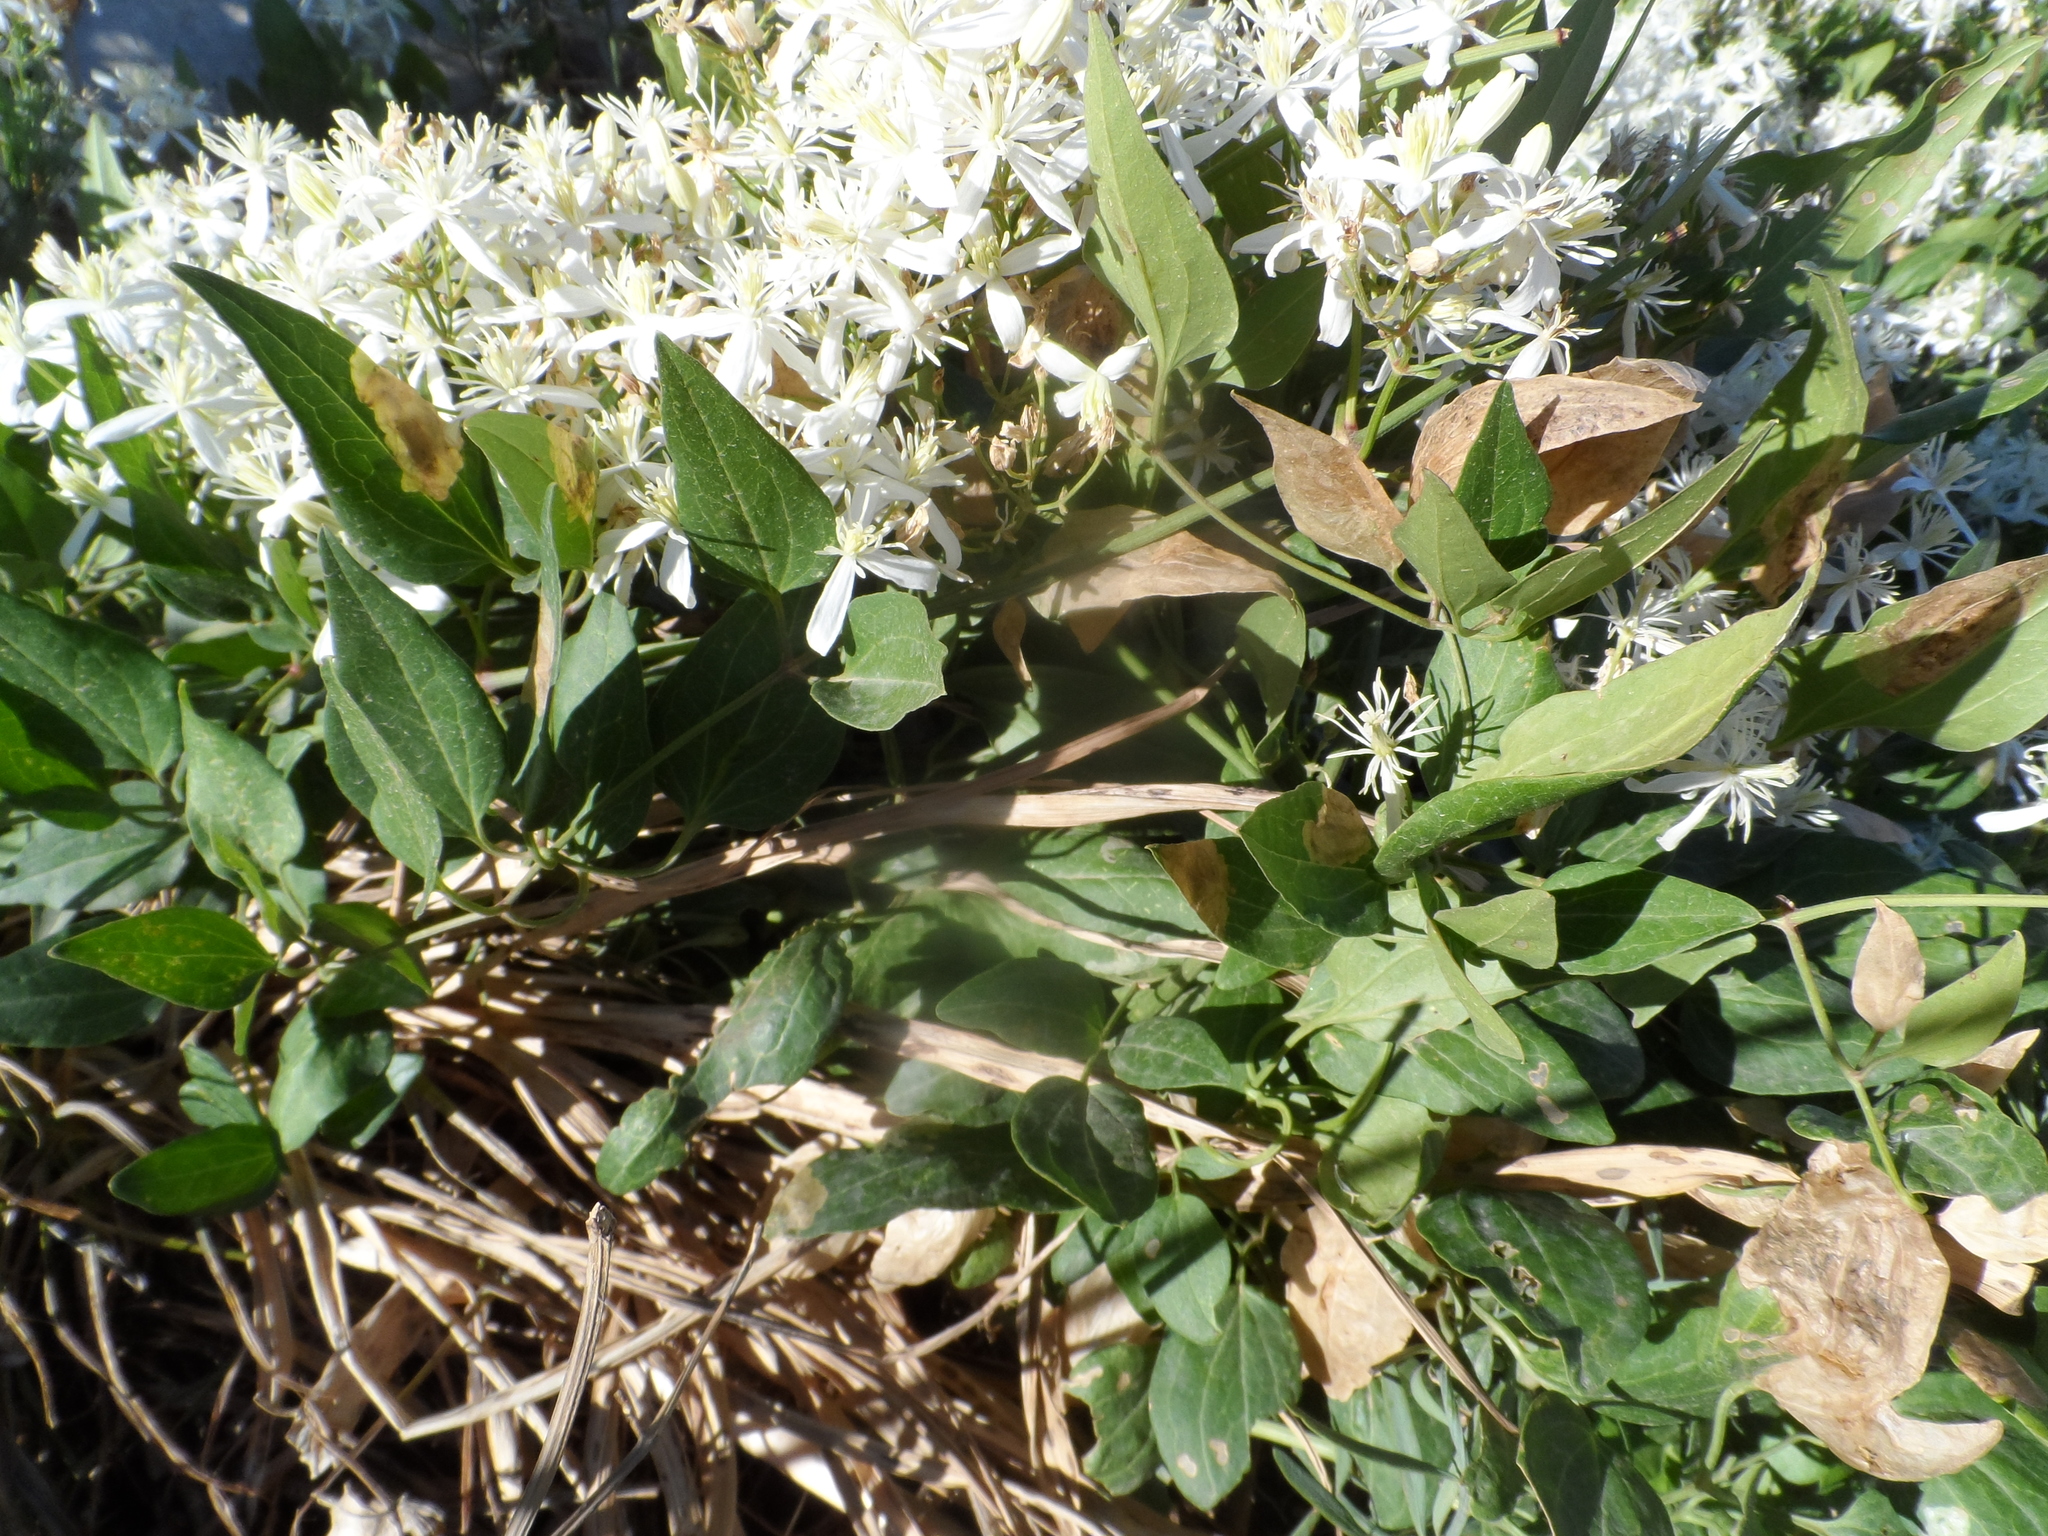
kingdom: Plantae
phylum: Tracheophyta
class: Magnoliopsida
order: Ranunculales
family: Ranunculaceae
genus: Clematis
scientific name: Clematis flammula
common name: Virgin's-bower
